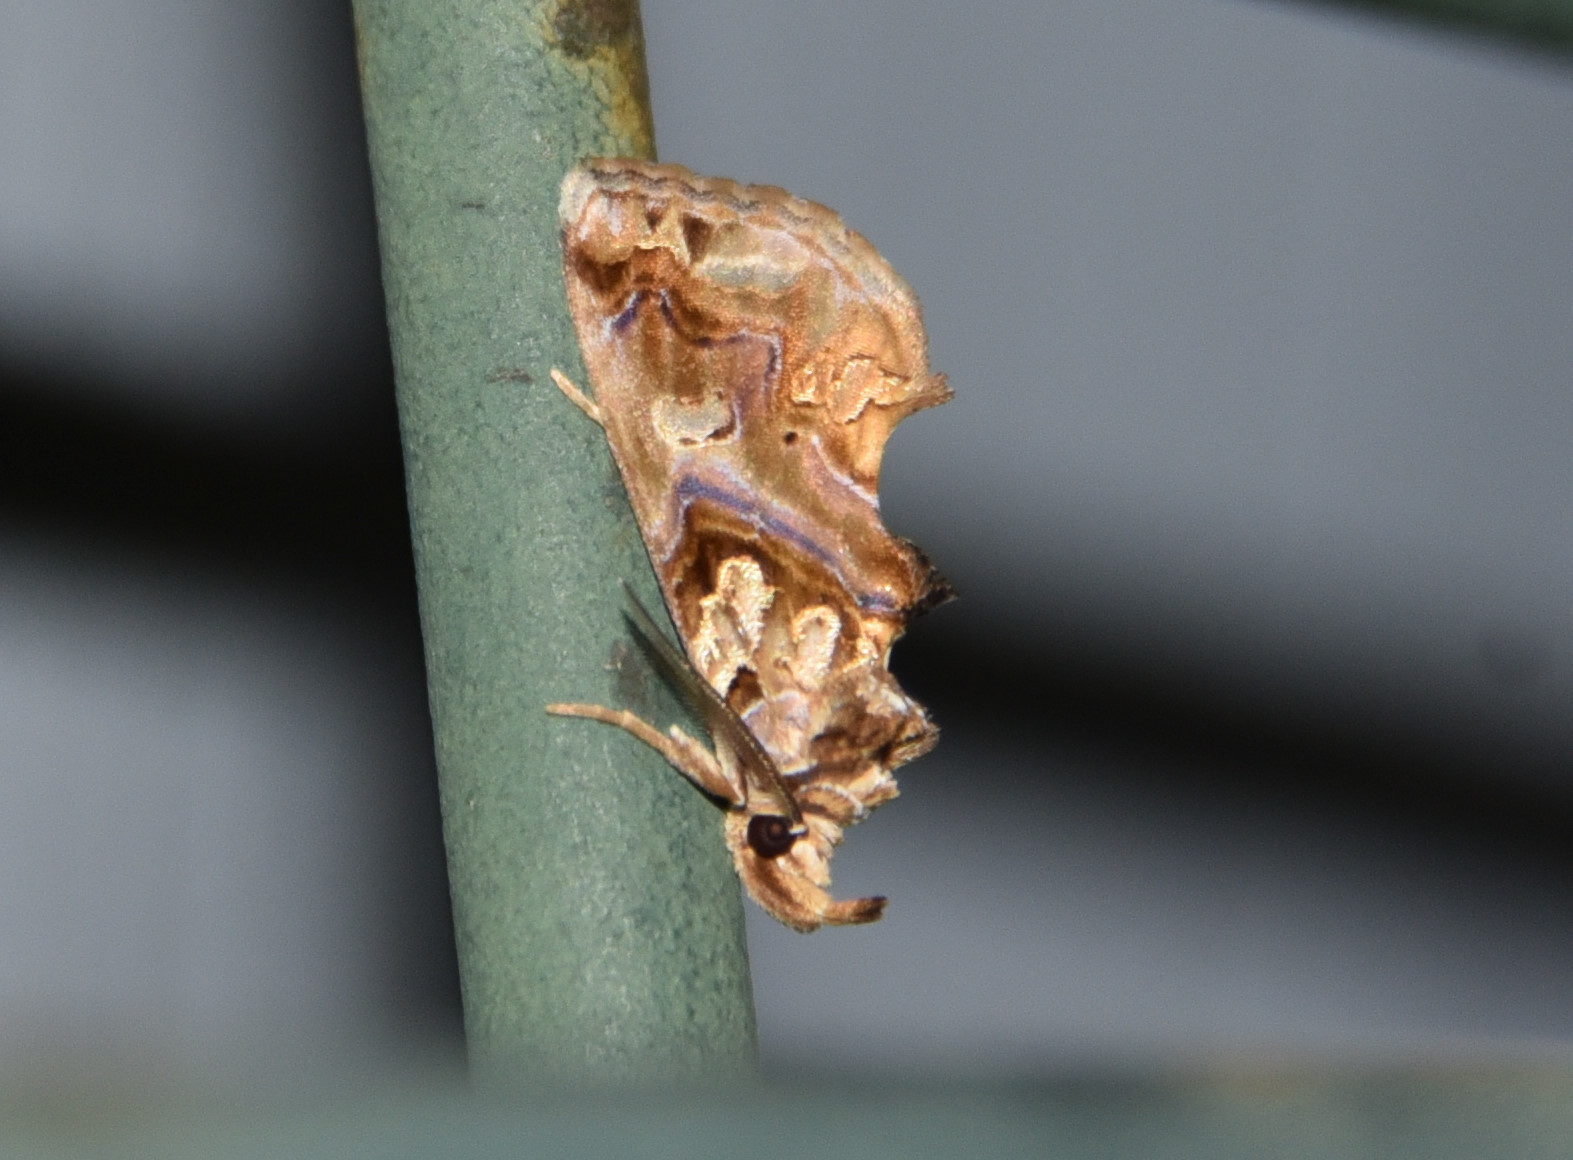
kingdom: Animalia
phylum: Arthropoda
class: Insecta
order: Lepidoptera
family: Erebidae
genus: Plusiodonta
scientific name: Plusiodonta compressipalpis
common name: Moonseed moth
